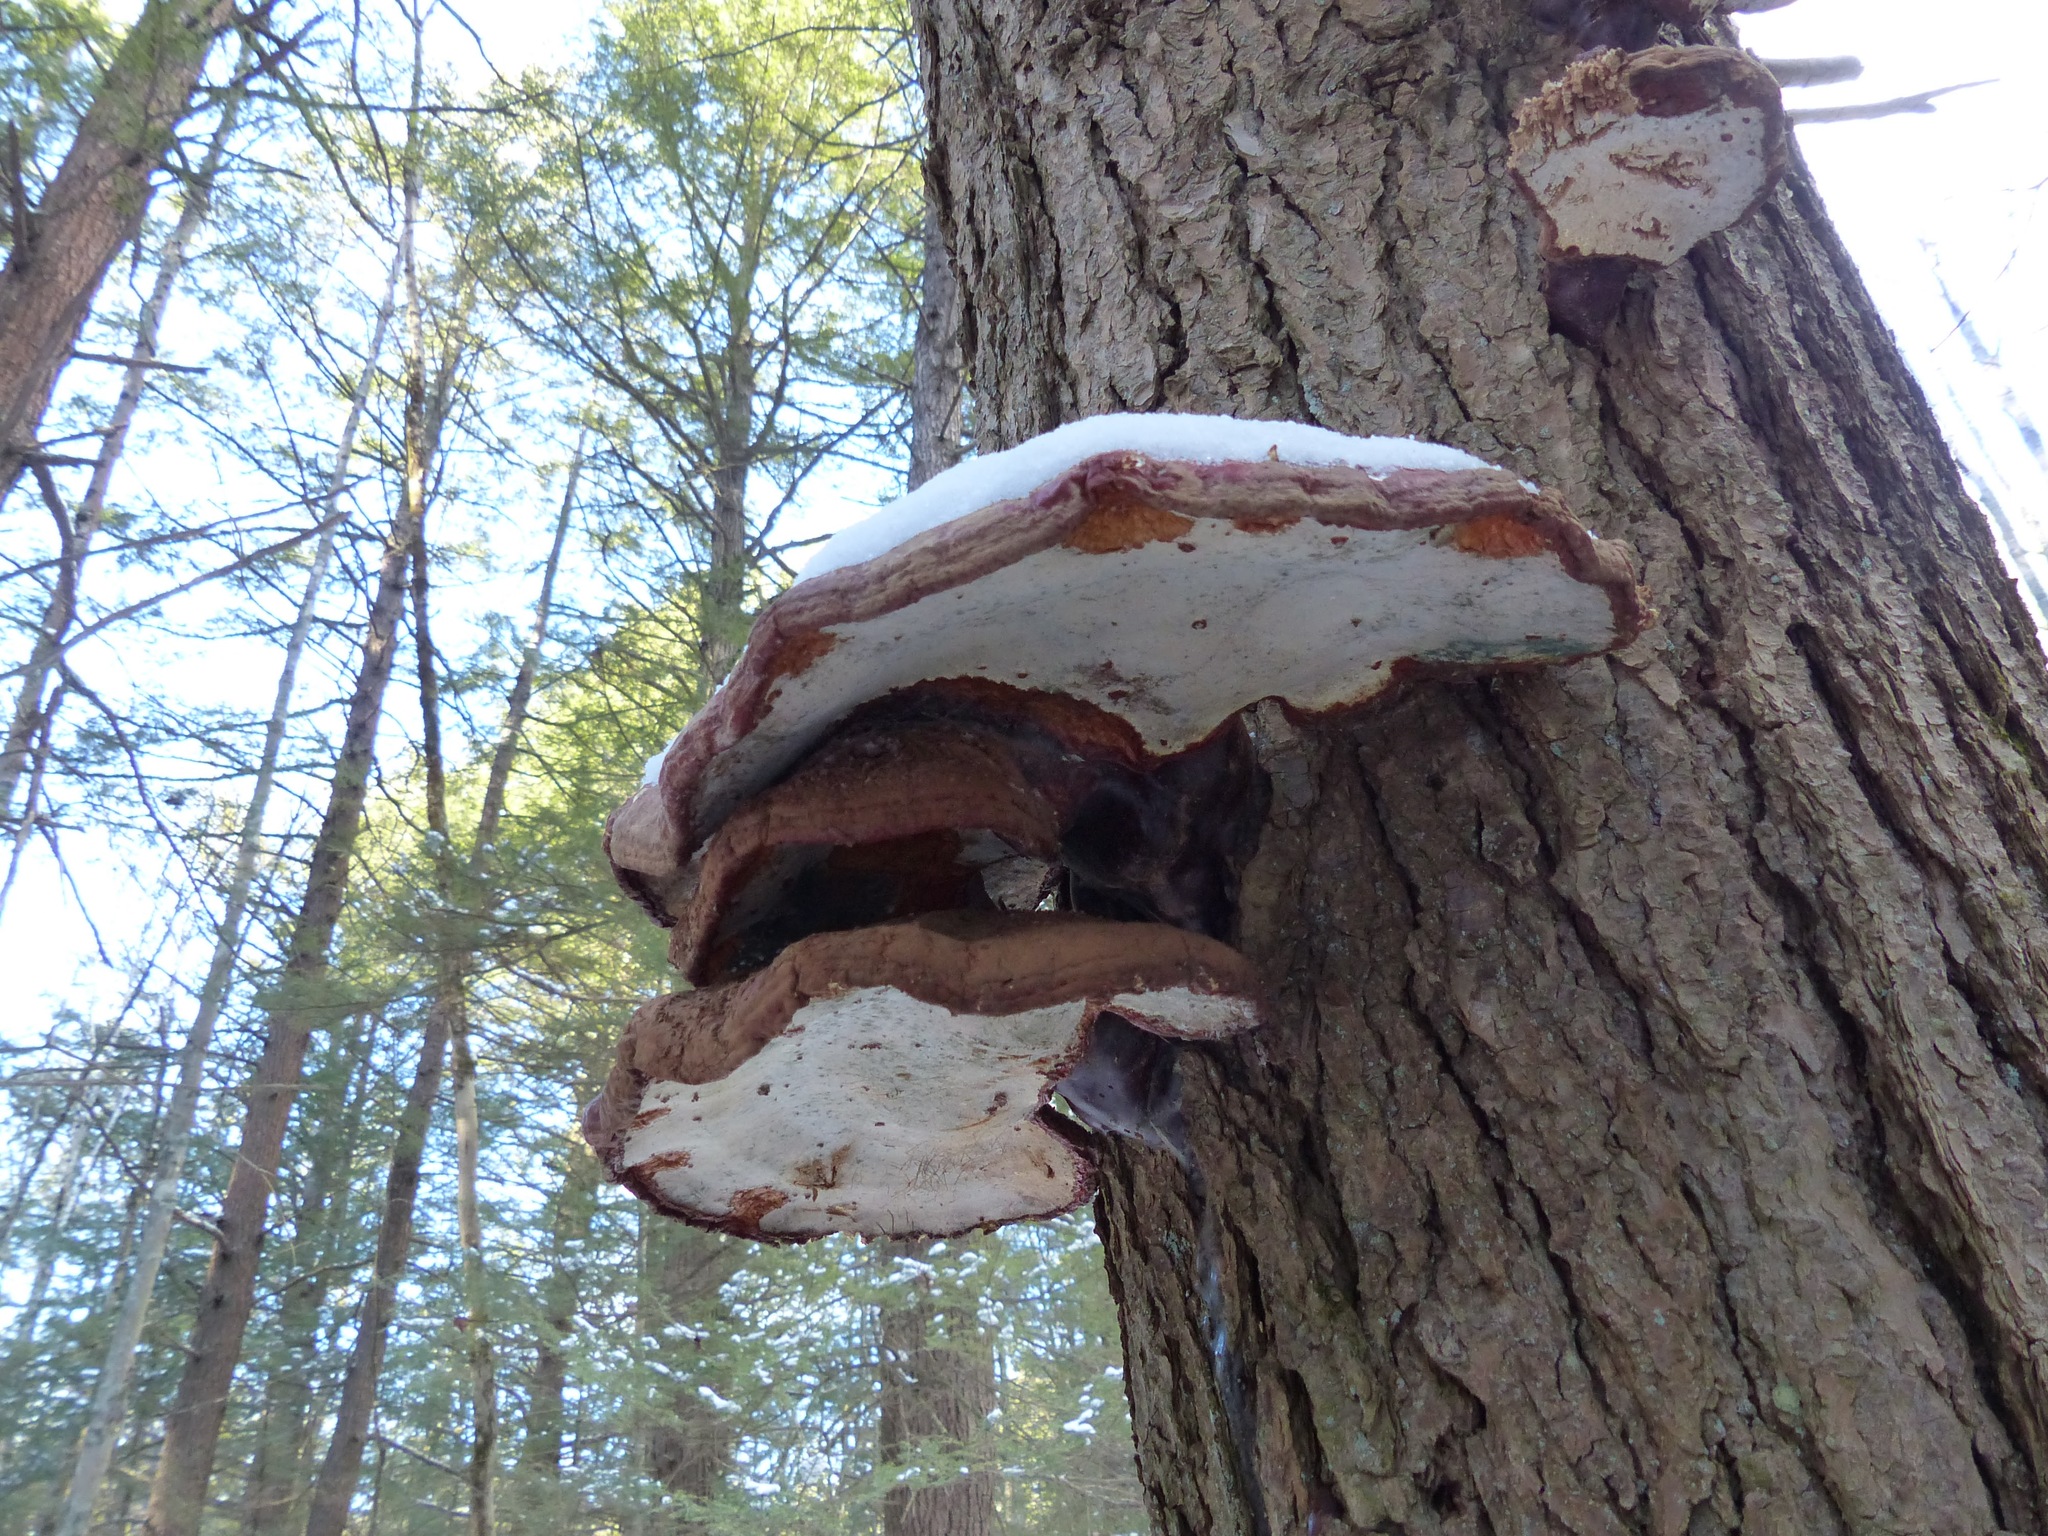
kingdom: Fungi
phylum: Basidiomycota
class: Agaricomycetes
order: Polyporales
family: Polyporaceae
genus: Ganoderma
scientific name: Ganoderma tsugae
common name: Hemlock varnish shelf
